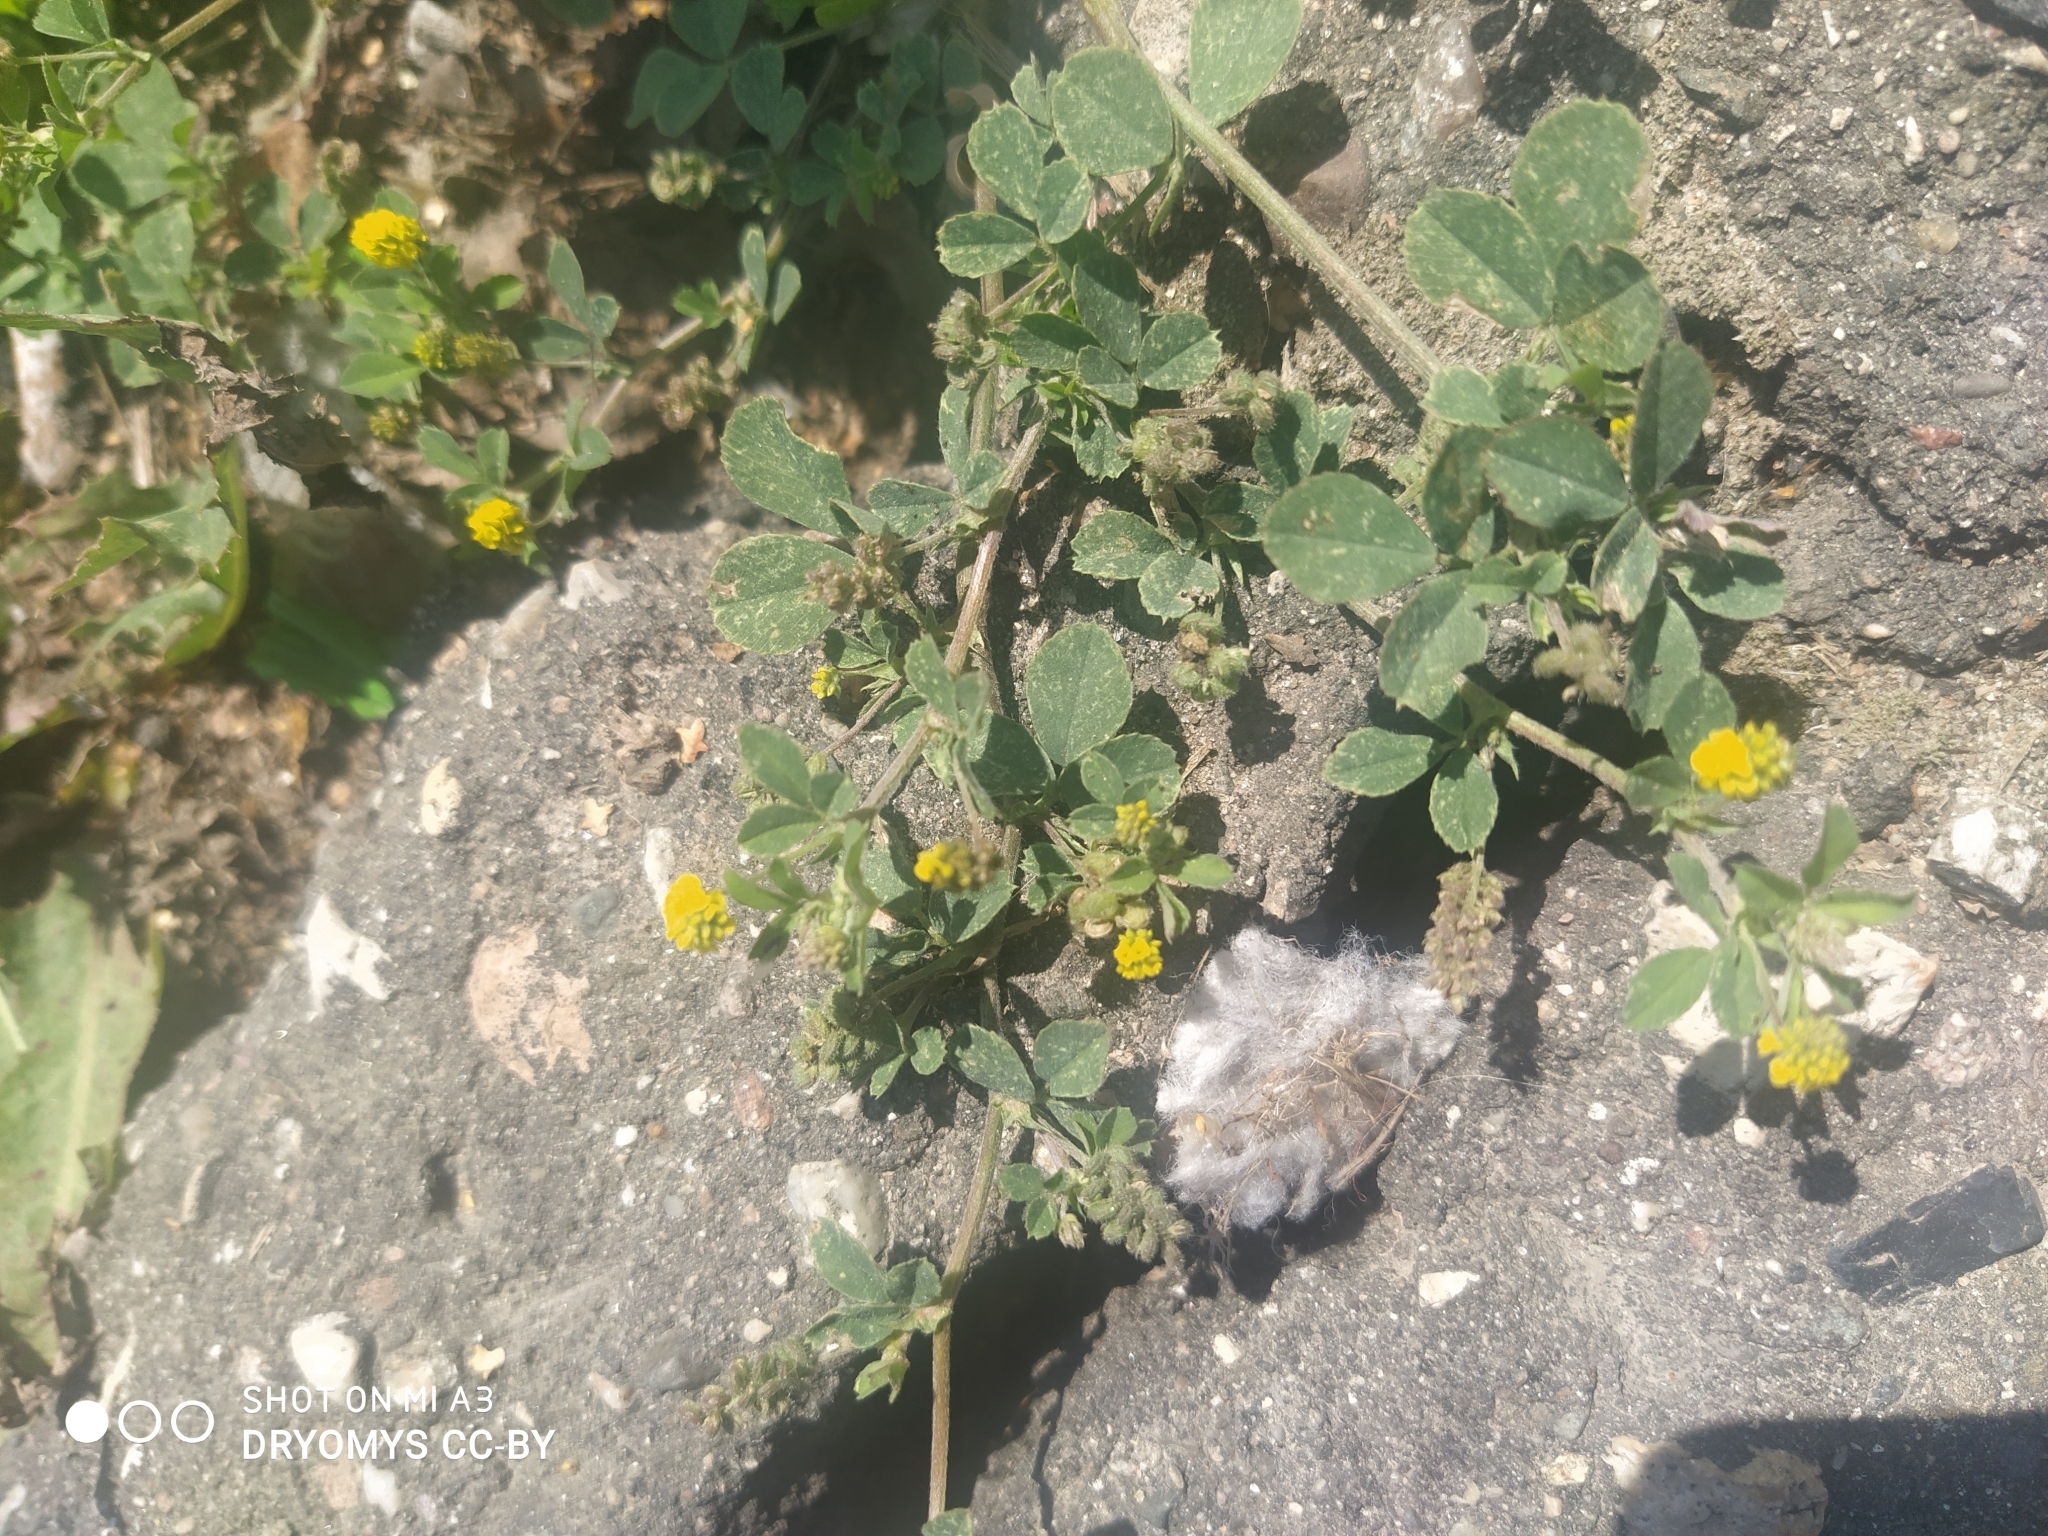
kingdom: Plantae
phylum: Tracheophyta
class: Magnoliopsida
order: Fabales
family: Fabaceae
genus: Medicago
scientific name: Medicago lupulina
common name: Black medick
